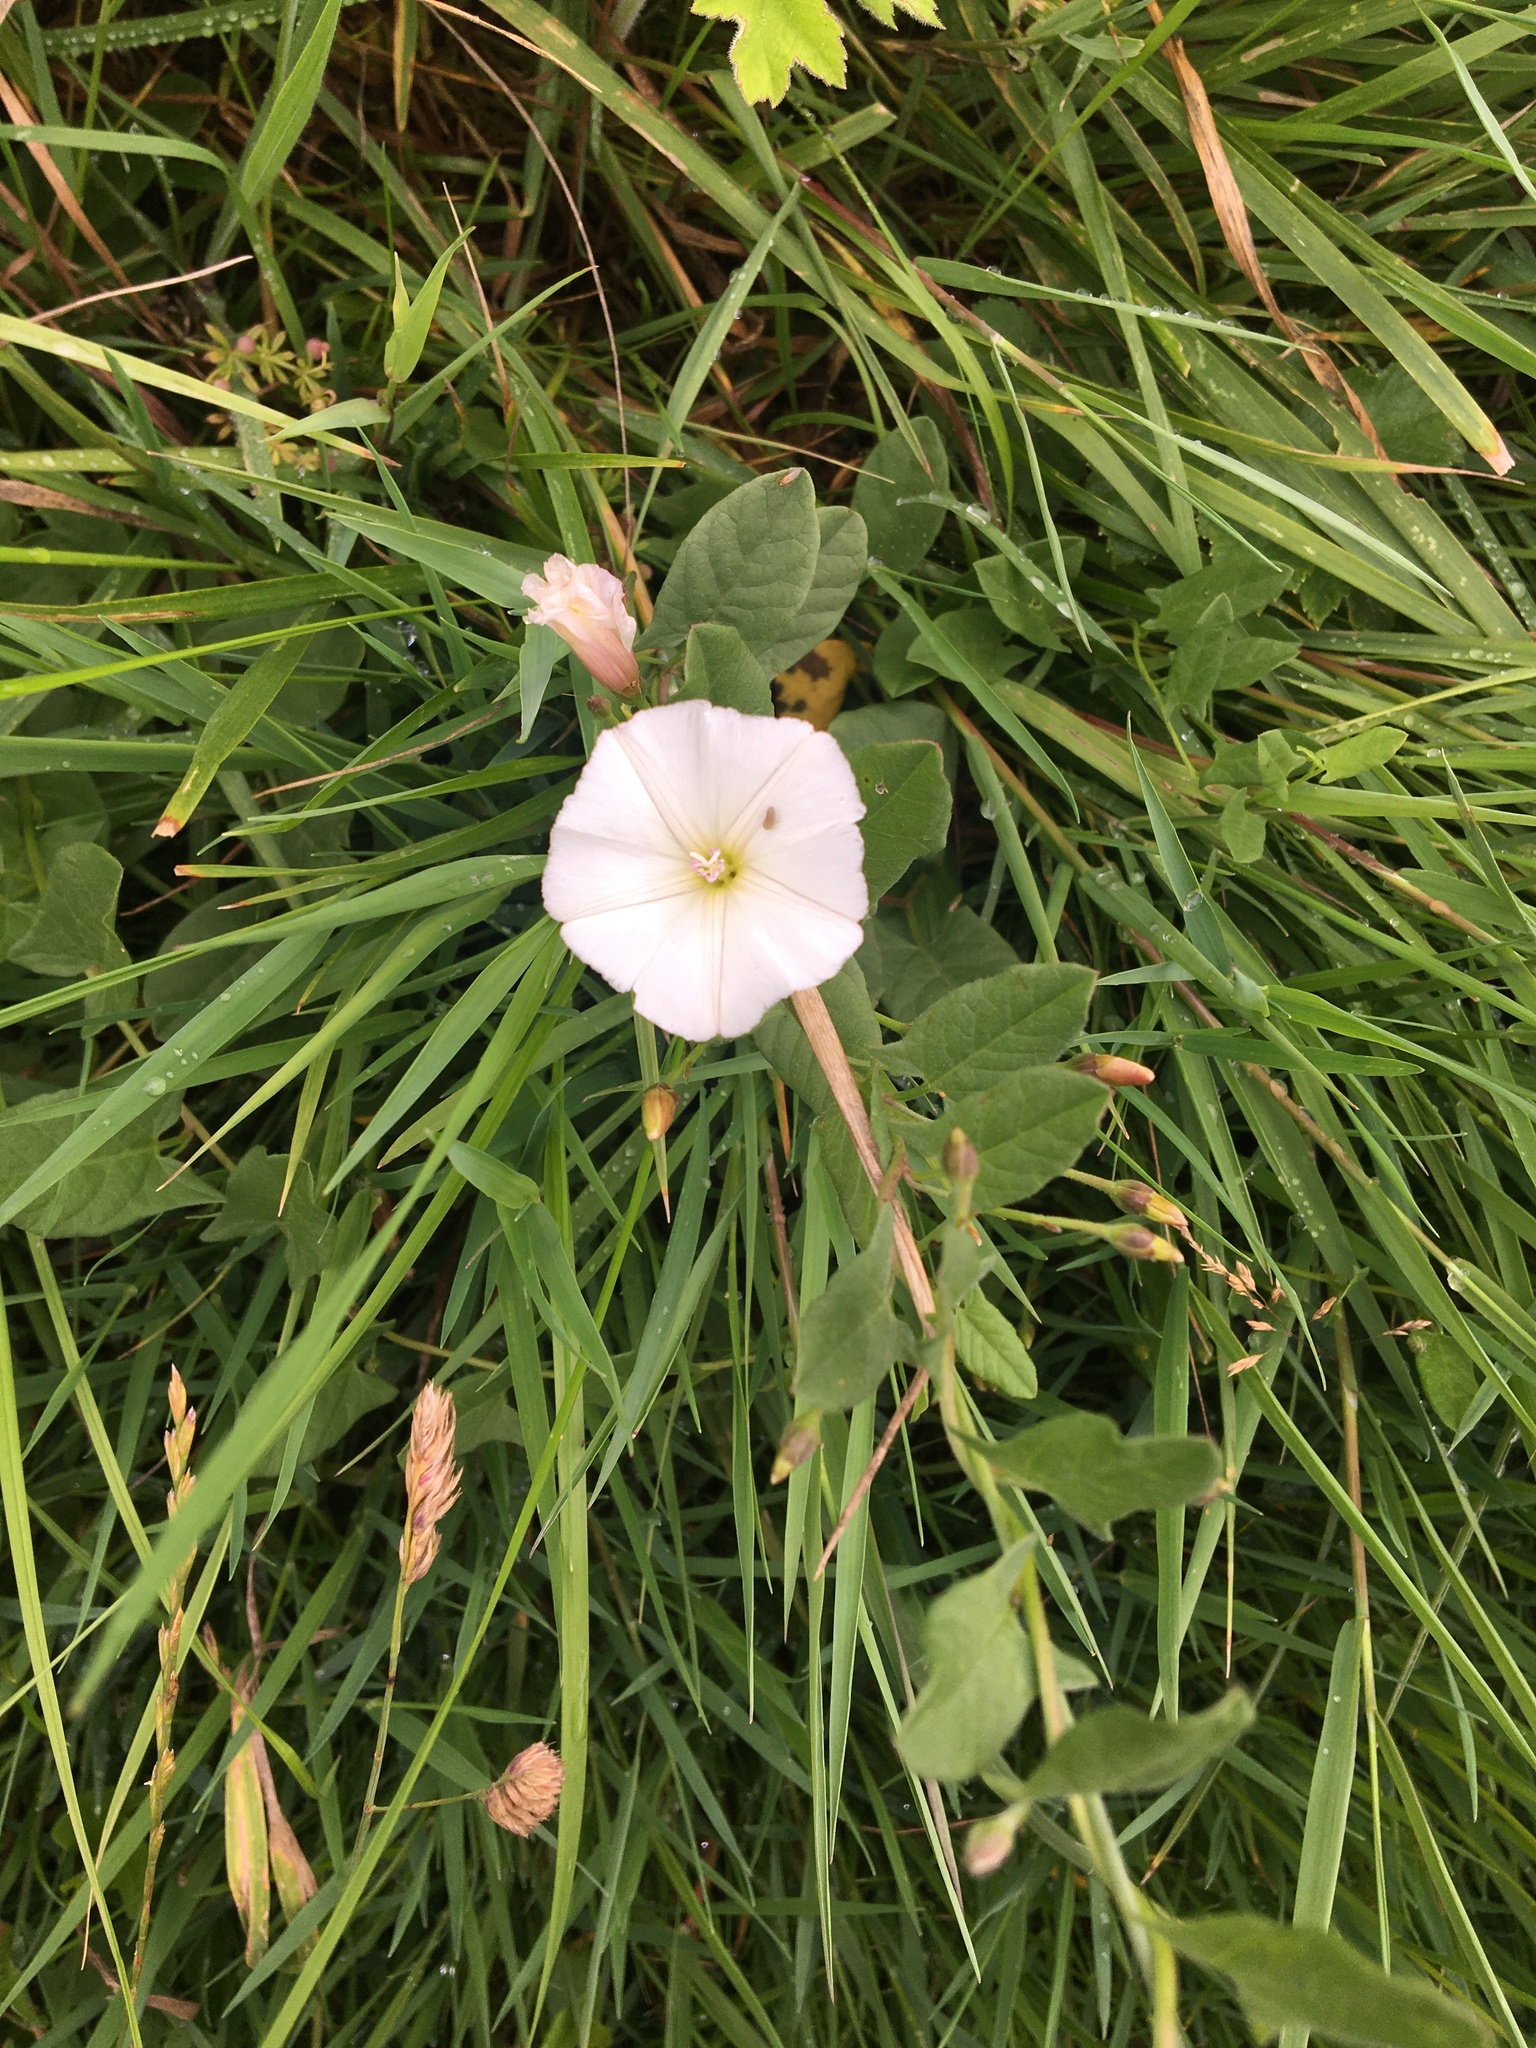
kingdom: Plantae
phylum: Tracheophyta
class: Magnoliopsida
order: Solanales
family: Convolvulaceae
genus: Convolvulus
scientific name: Convolvulus arvensis
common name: Field bindweed
